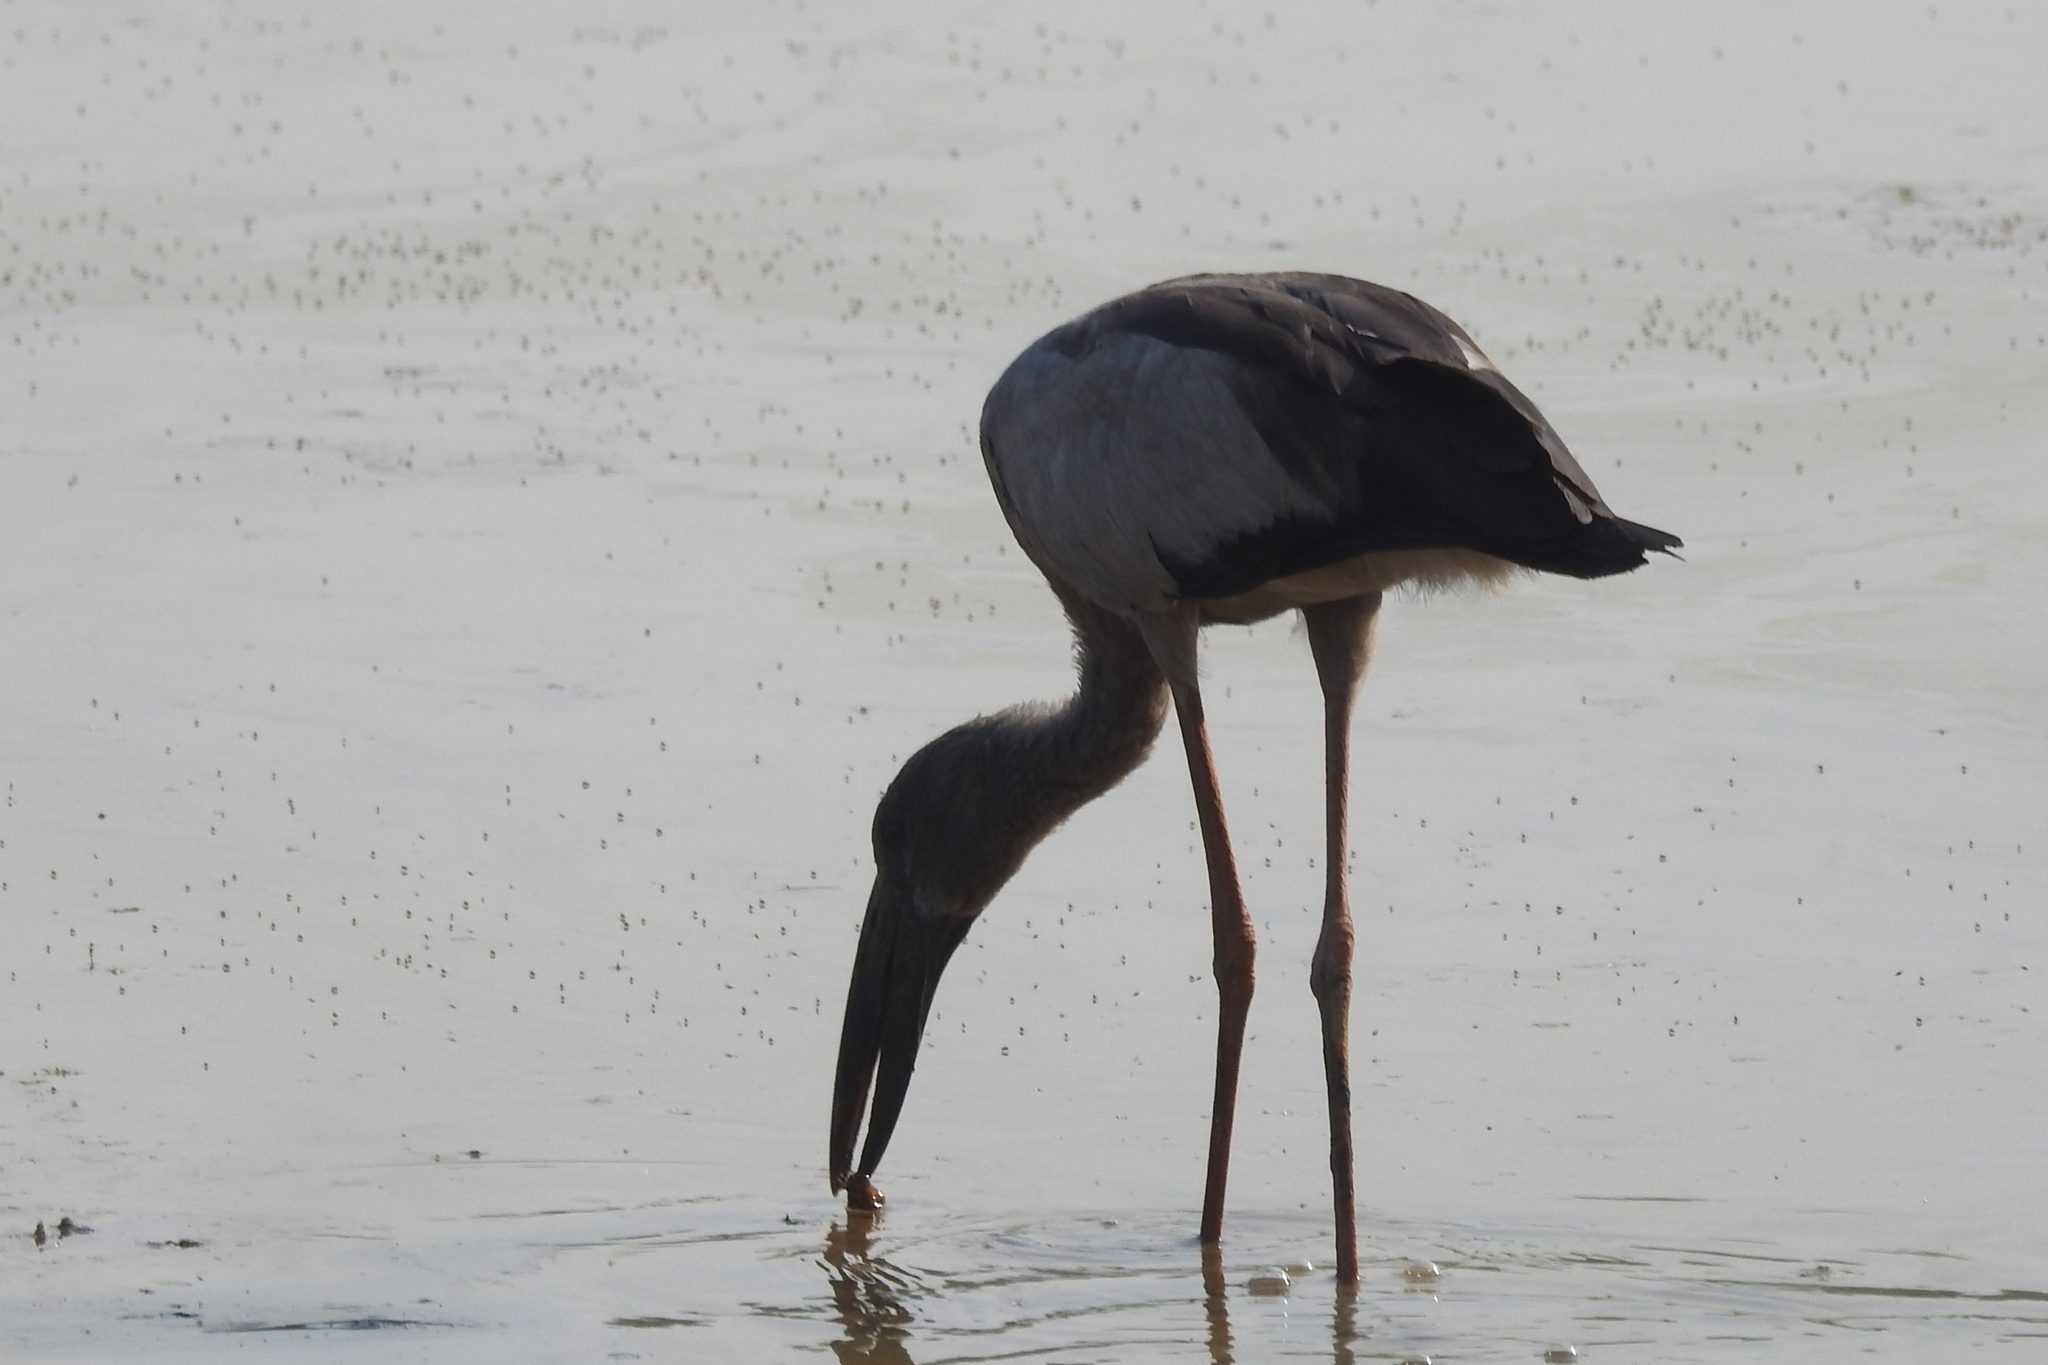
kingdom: Animalia
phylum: Chordata
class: Aves
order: Ciconiiformes
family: Ciconiidae
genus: Anastomus
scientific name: Anastomus oscitans
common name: Asian openbill
